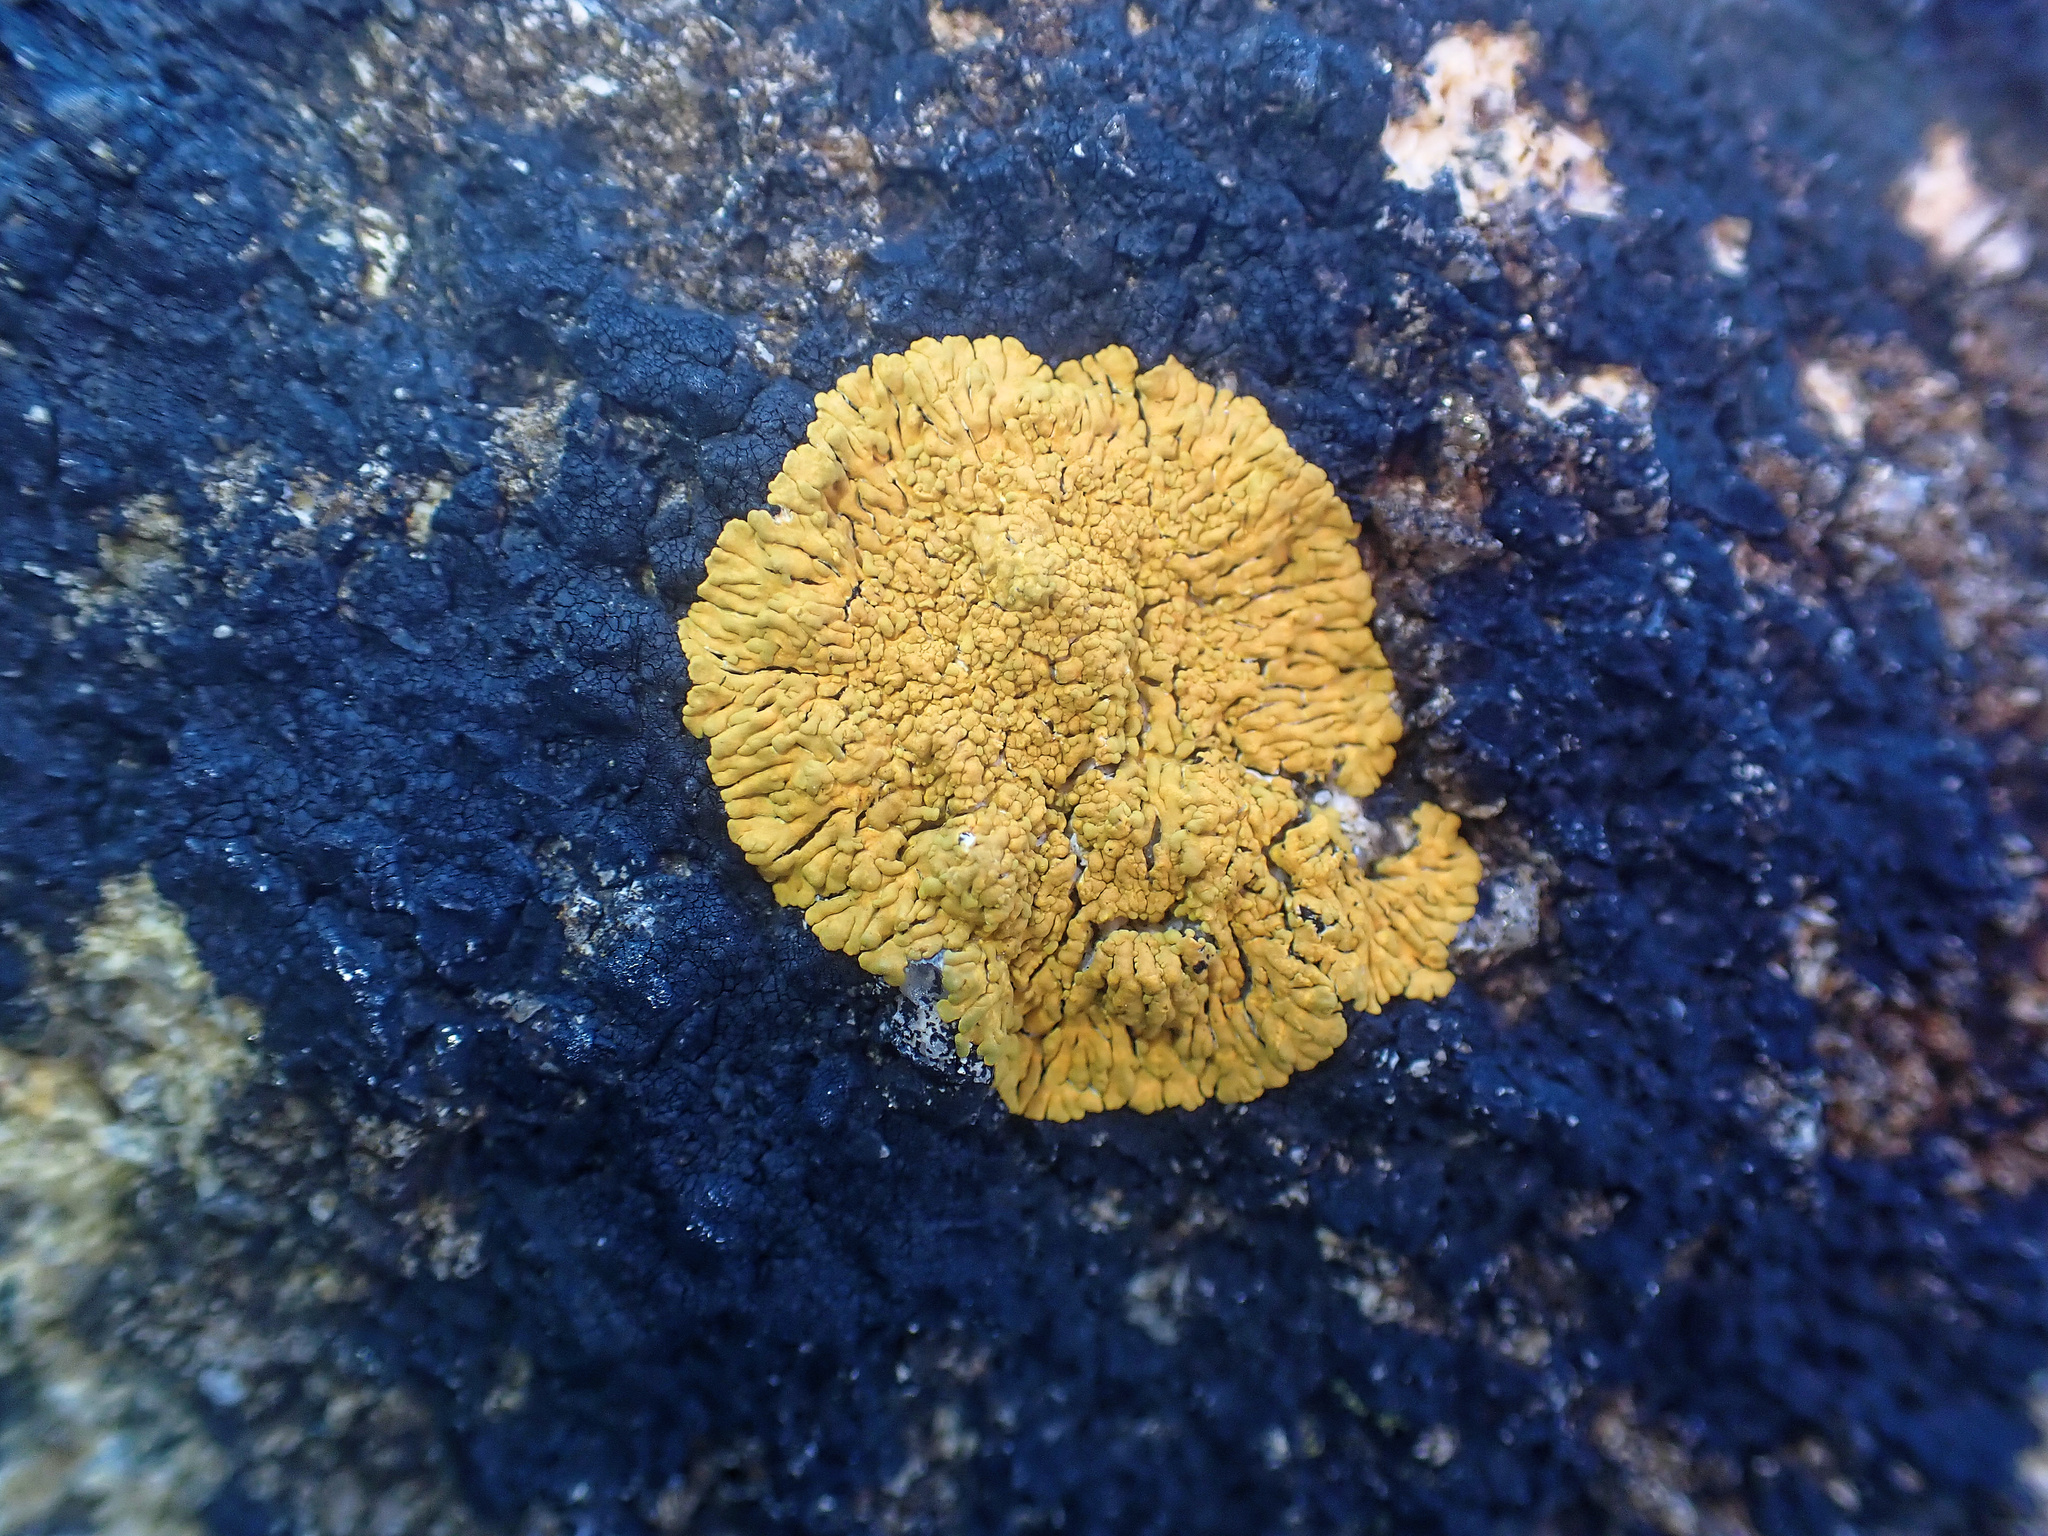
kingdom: Fungi
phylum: Ascomycota
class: Lecanoromycetes
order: Teloschistales
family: Teloschistaceae
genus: Variospora
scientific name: Variospora thallincola
